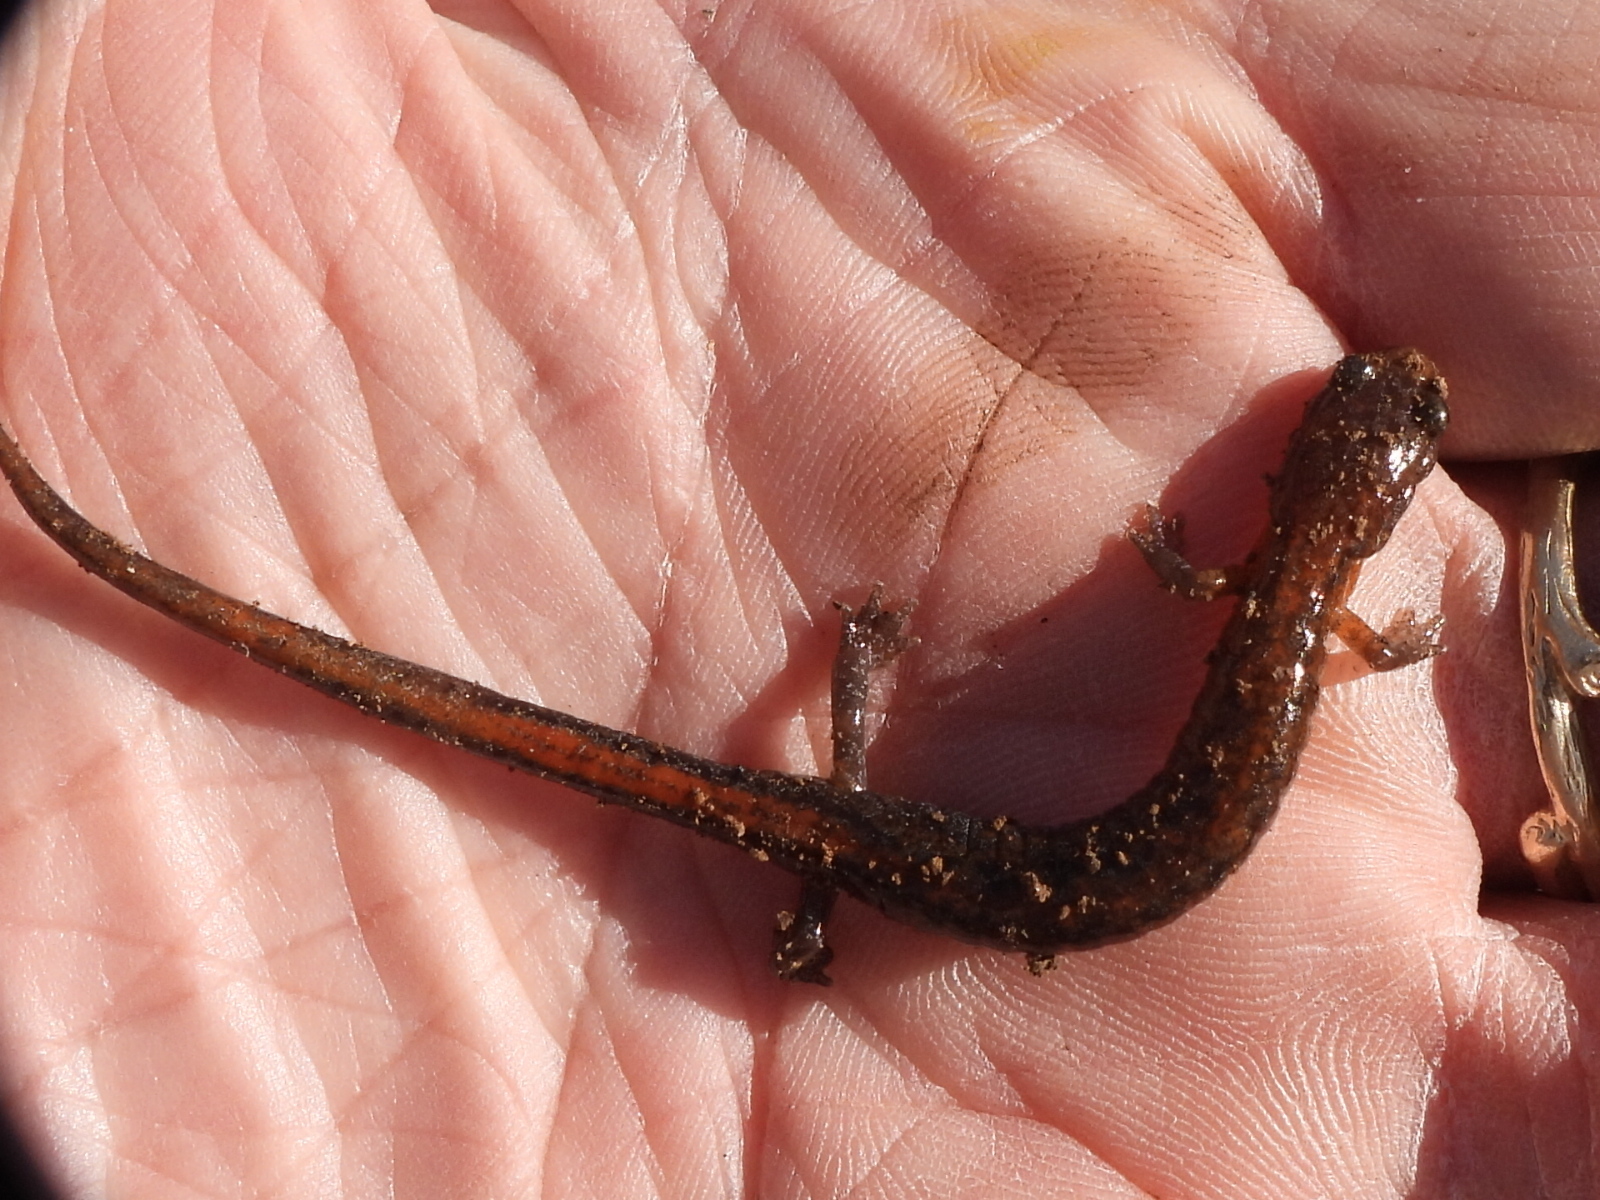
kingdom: Animalia
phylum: Chordata
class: Amphibia
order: Caudata
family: Plethodontidae
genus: Plethodon
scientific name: Plethodon dorsalis
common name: Northern zigzag salamander
